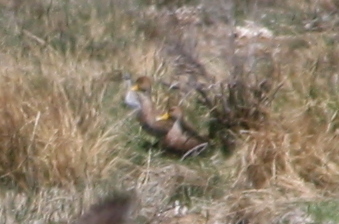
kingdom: Animalia
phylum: Chordata
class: Aves
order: Anseriformes
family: Anatidae
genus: Anas
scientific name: Anas georgica
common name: Yellow-billed pintail
